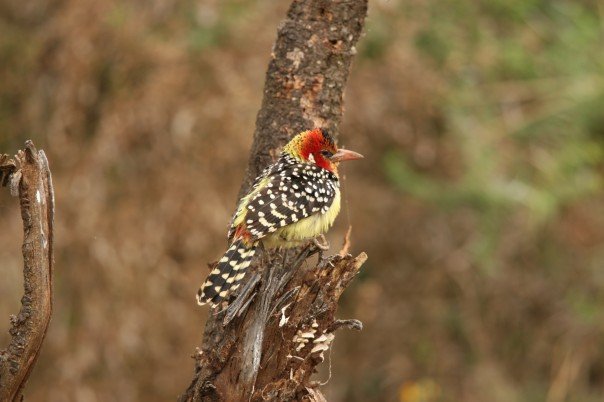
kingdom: Animalia
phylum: Chordata
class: Aves
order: Piciformes
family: Lybiidae
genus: Trachyphonus
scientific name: Trachyphonus erythrocephalus
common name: Red-and-yellow barbet
